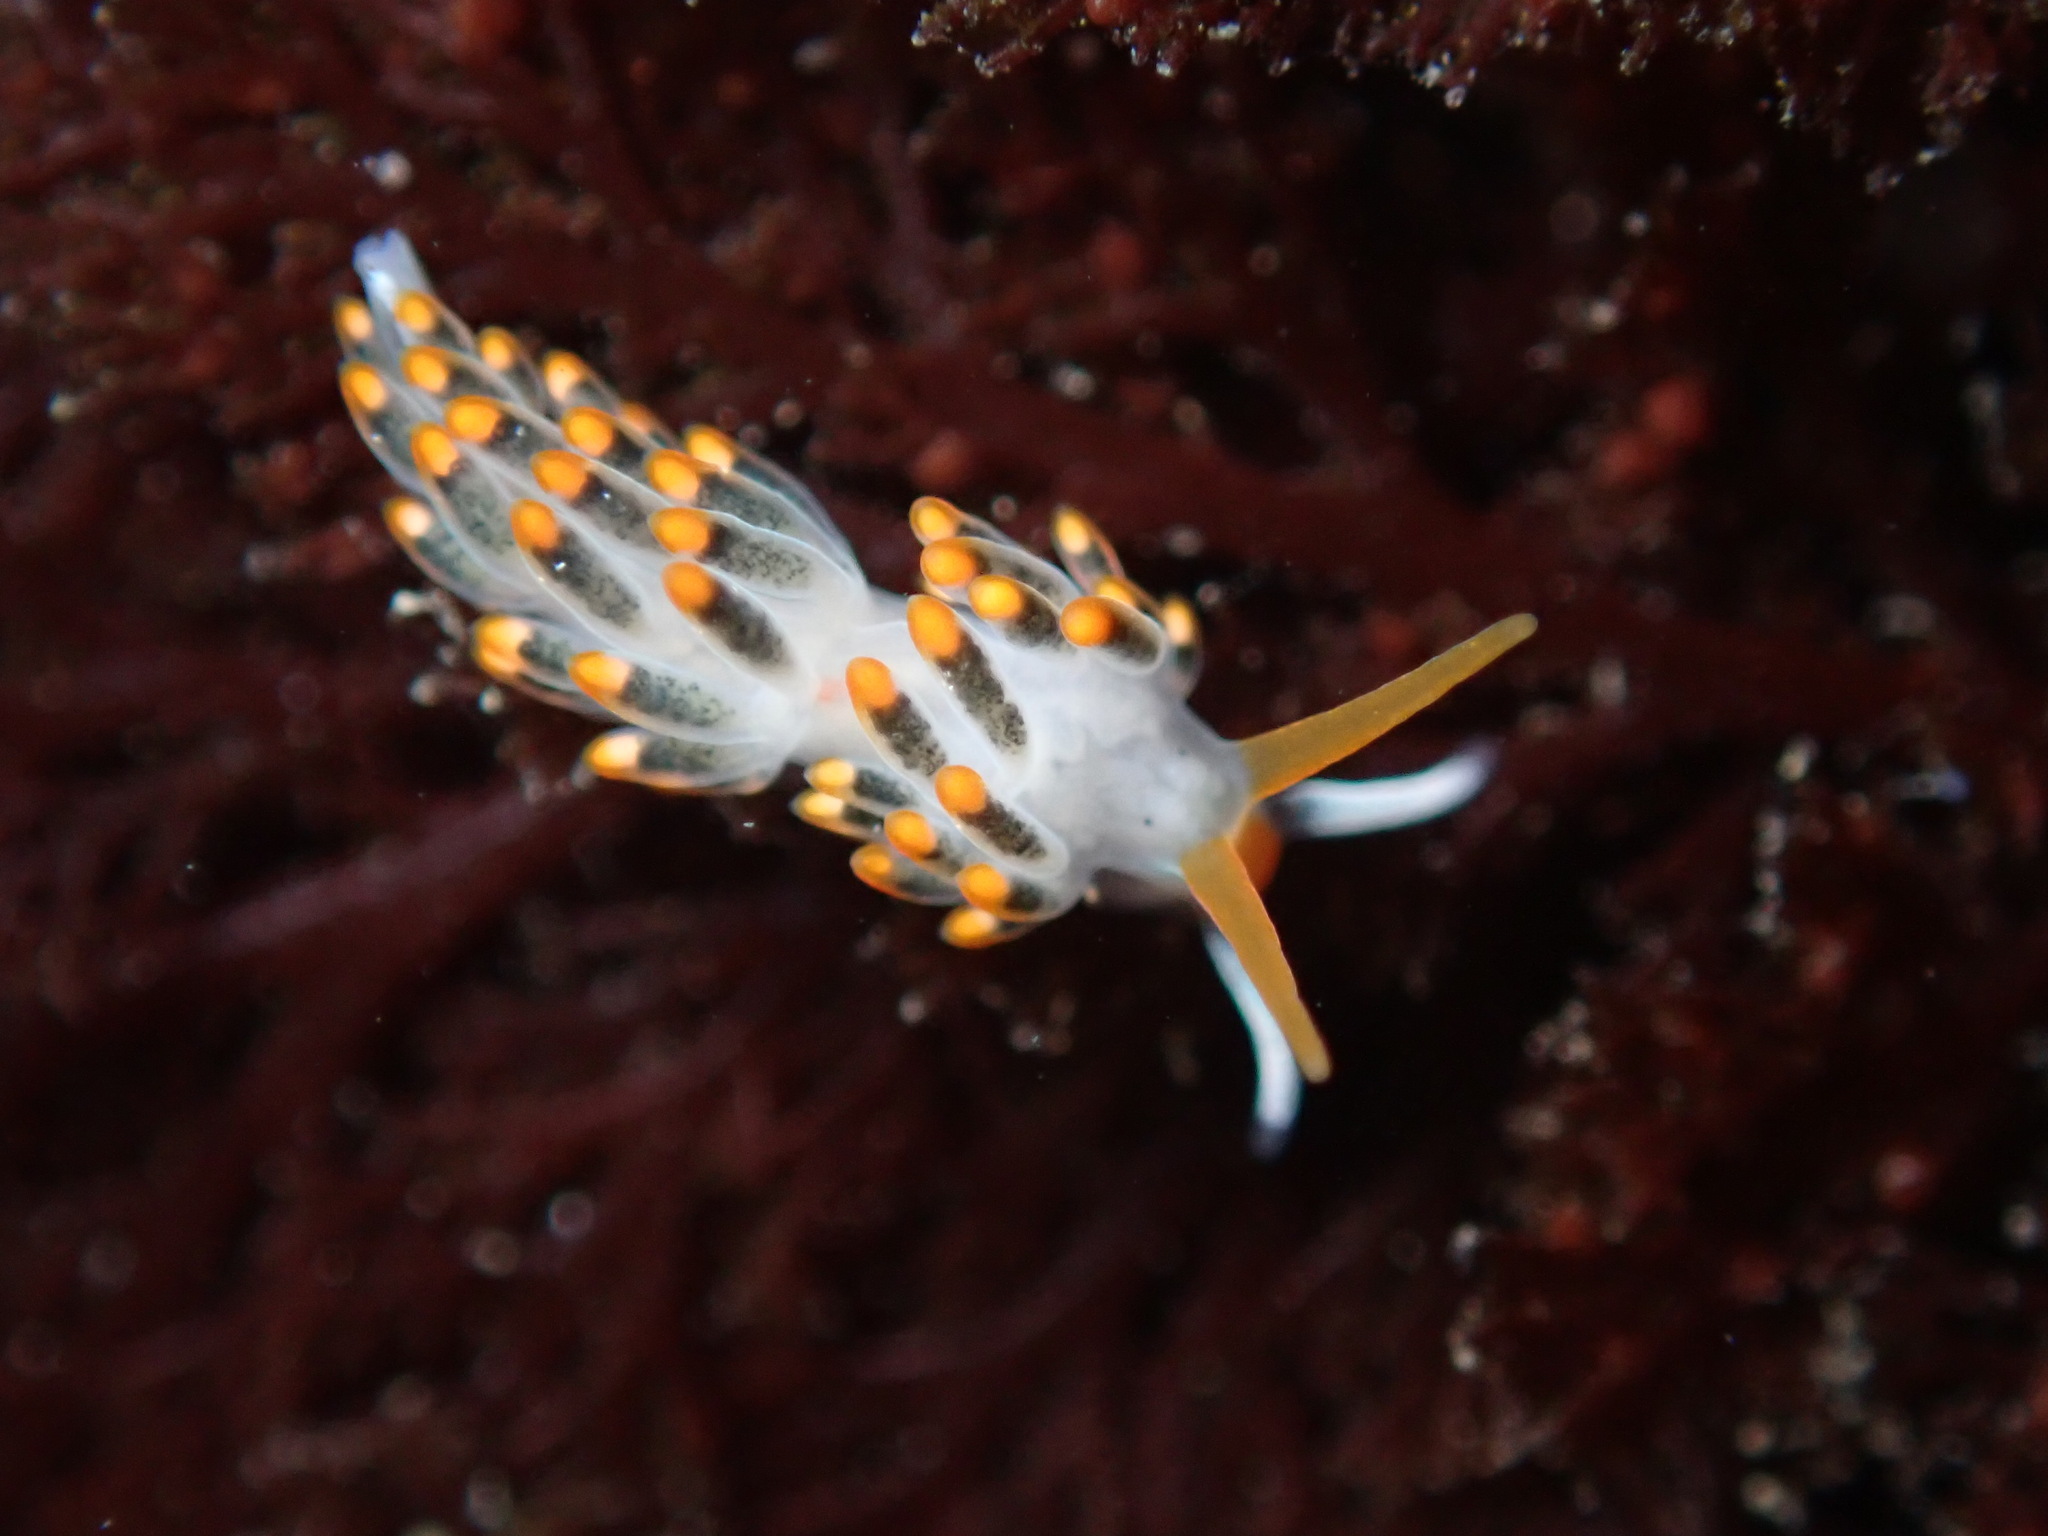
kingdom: Animalia
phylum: Mollusca
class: Gastropoda
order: Nudibranchia
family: Trinchesiidae
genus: Diaphoreolis
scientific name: Diaphoreolis lagunae
